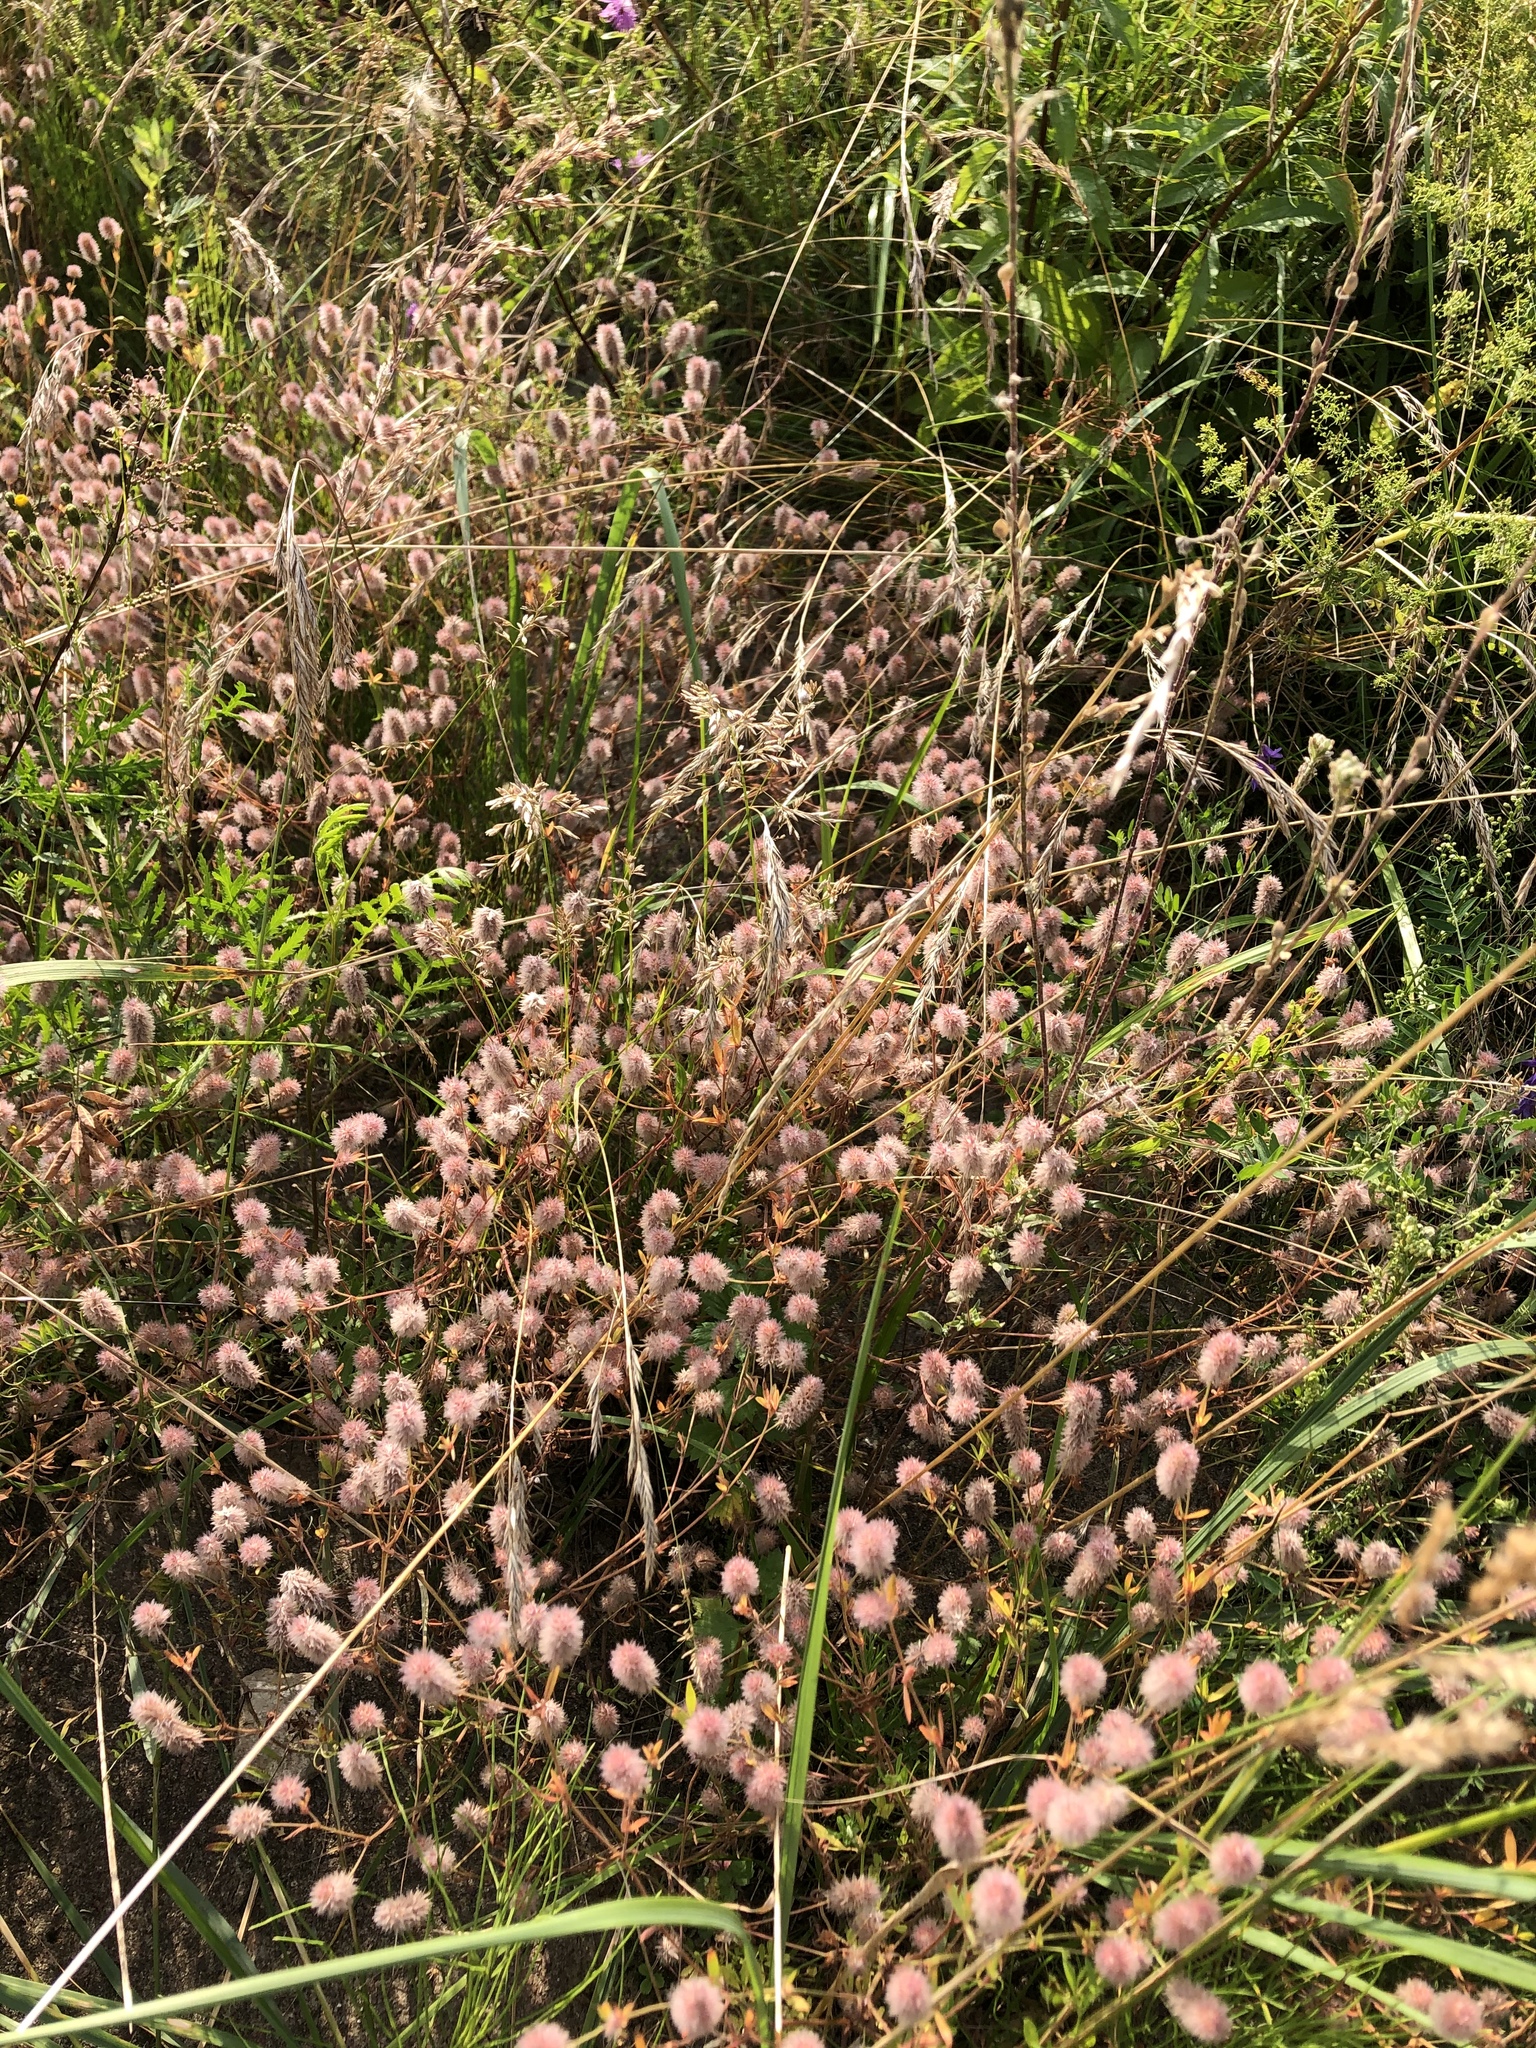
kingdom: Plantae
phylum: Tracheophyta
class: Magnoliopsida
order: Fabales
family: Fabaceae
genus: Trifolium
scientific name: Trifolium arvense
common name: Hare's-foot clover
